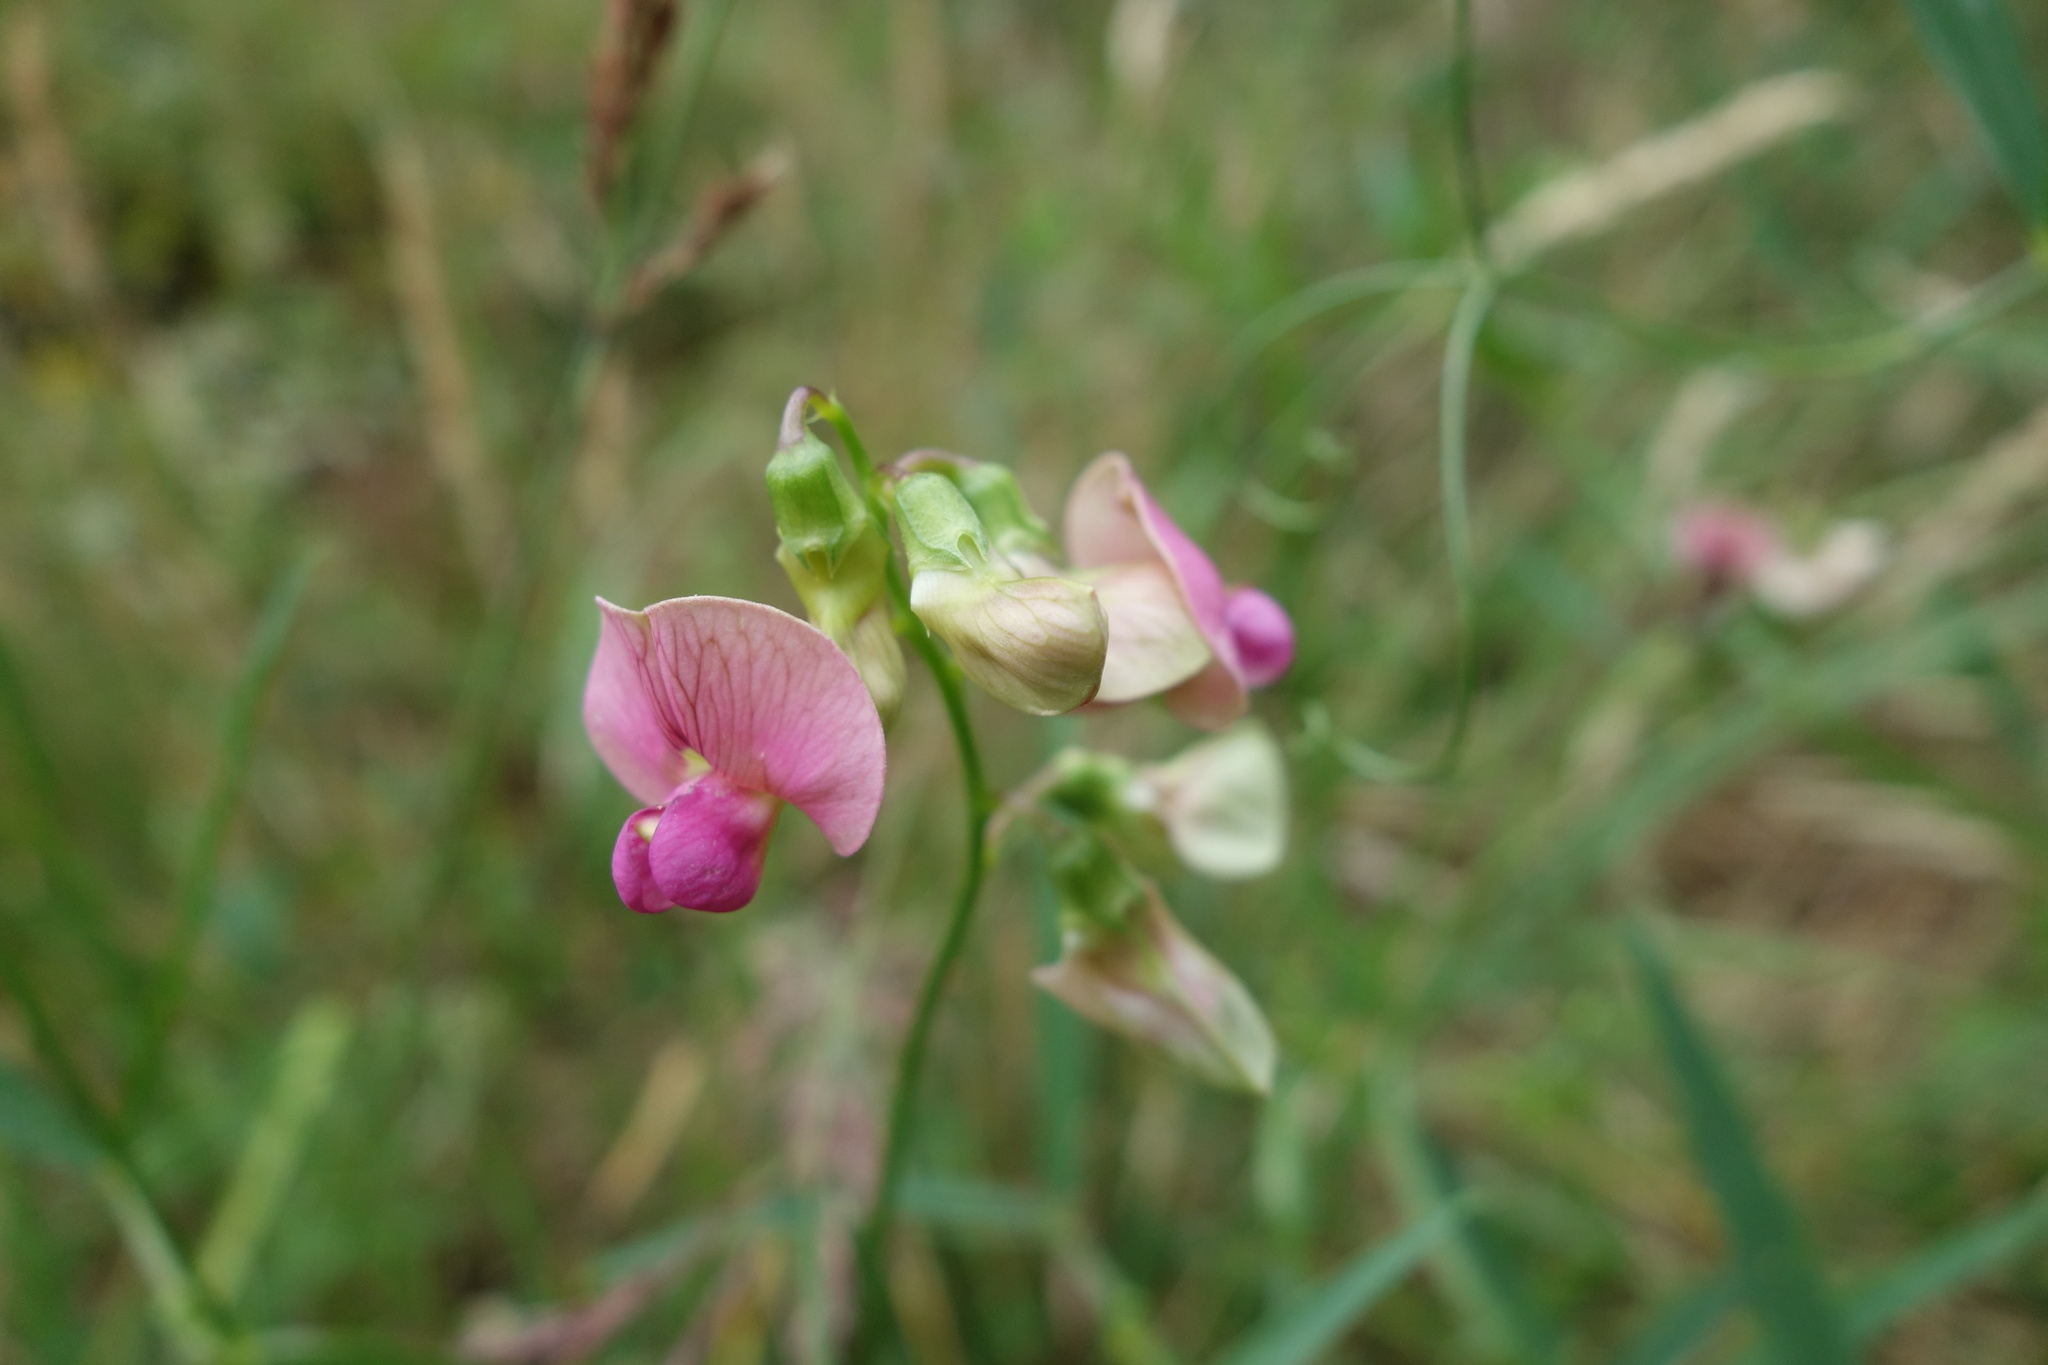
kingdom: Plantae
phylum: Tracheophyta
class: Magnoliopsida
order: Fabales
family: Fabaceae
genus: Lathyrus
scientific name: Lathyrus sylvestris
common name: Flat pea
